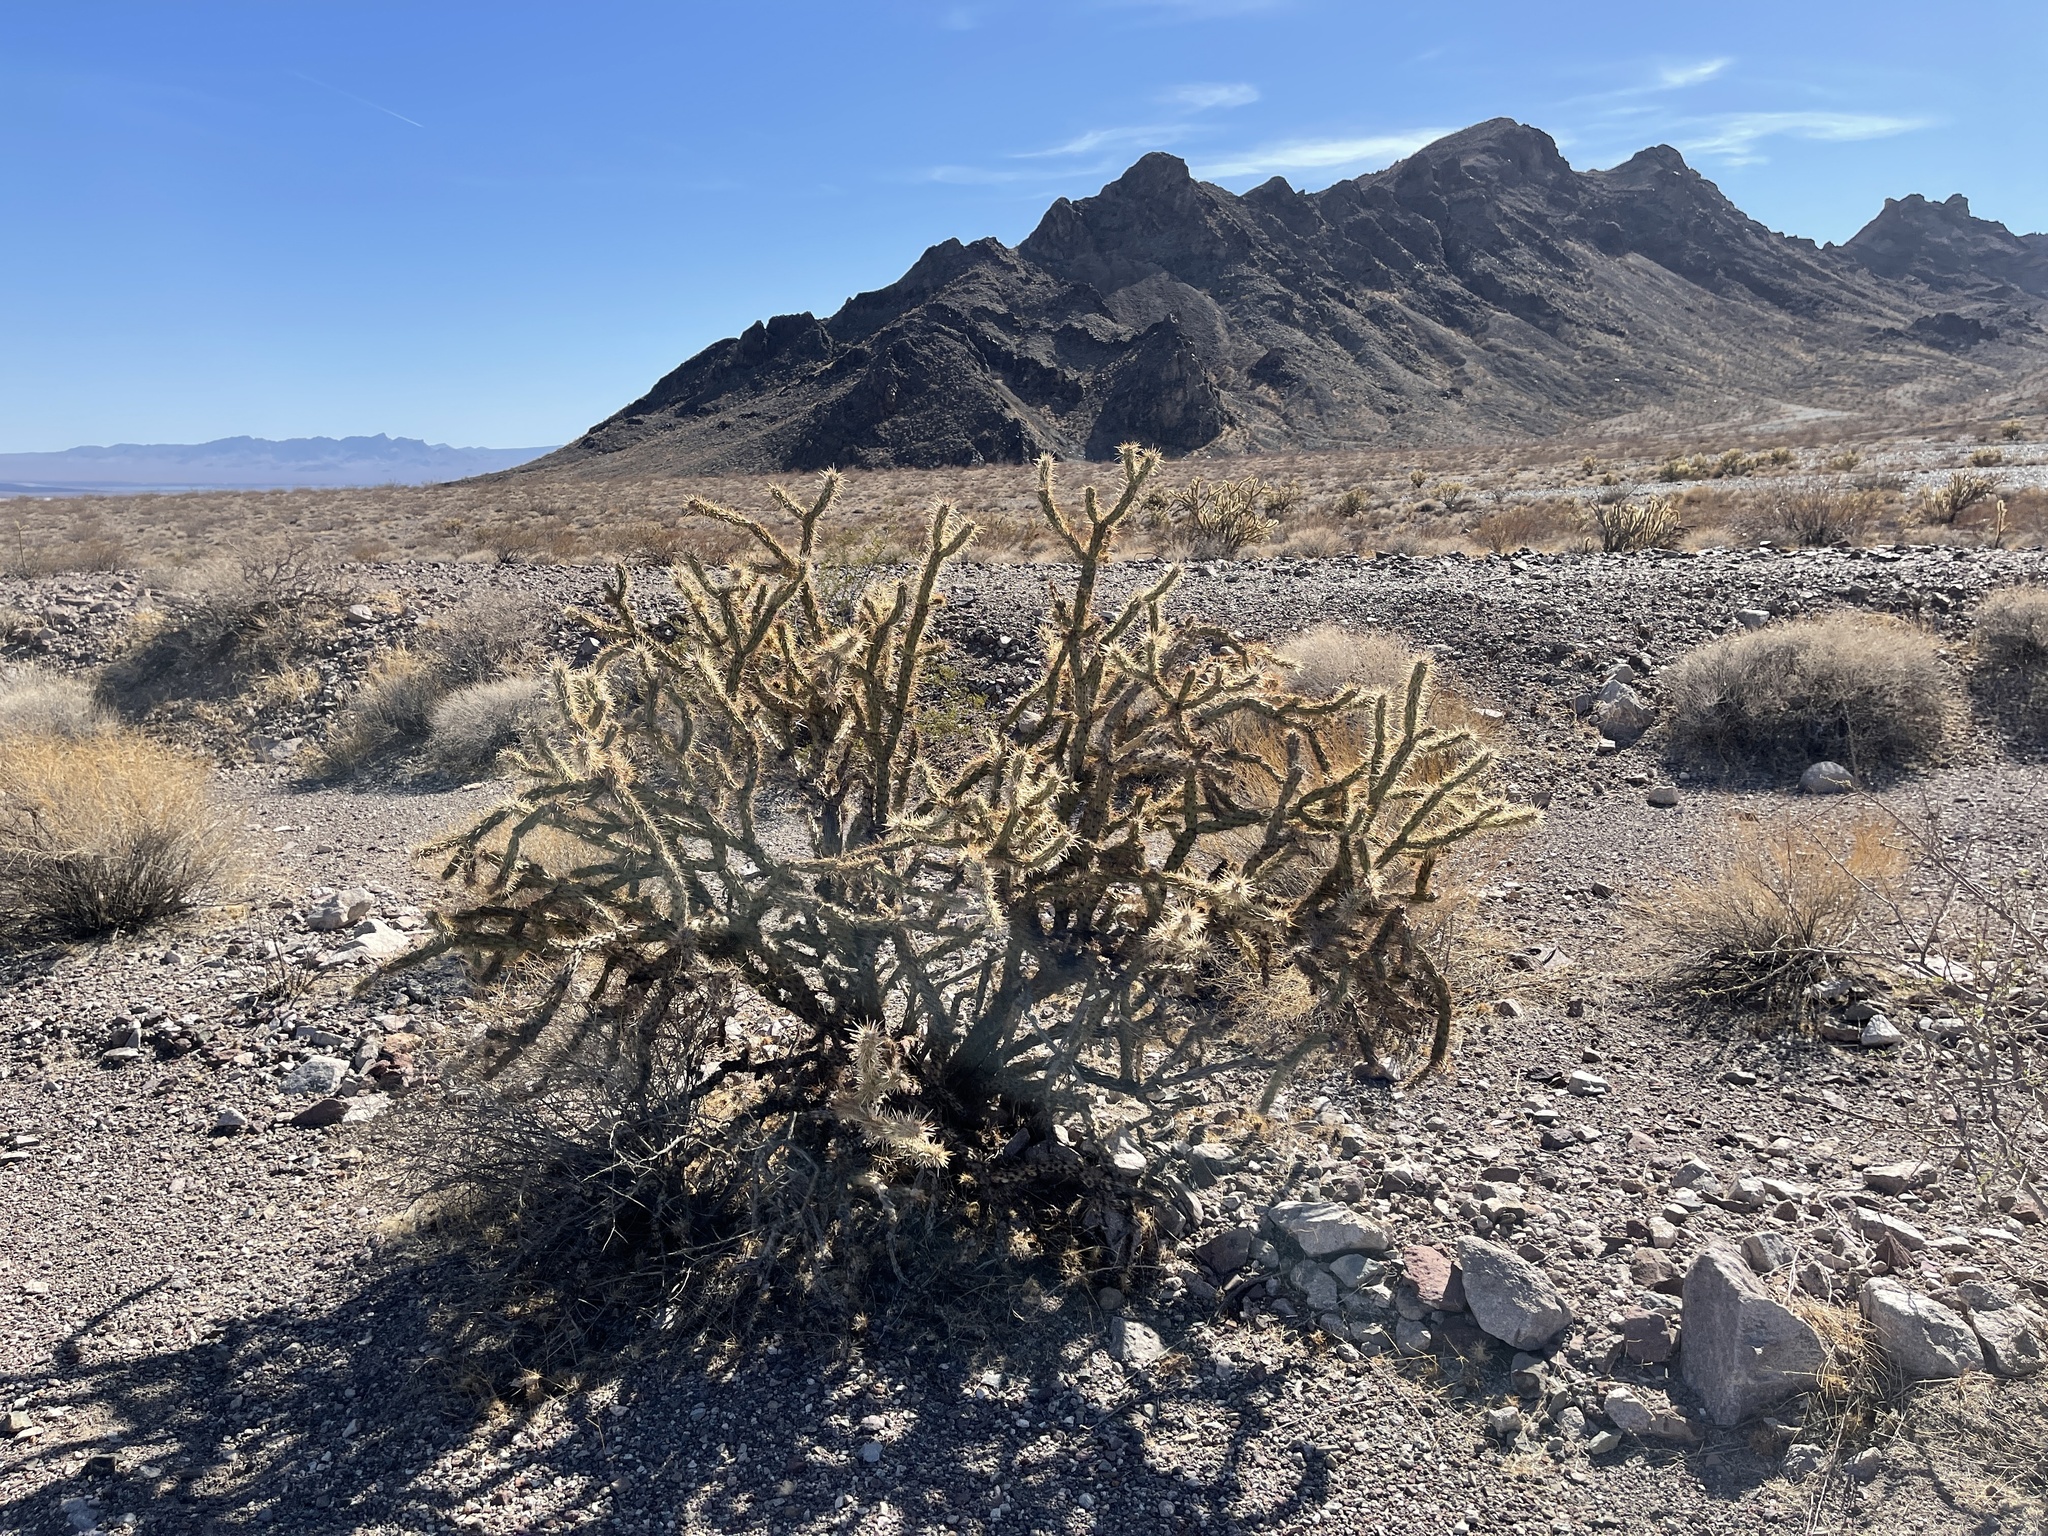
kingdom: Plantae
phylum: Tracheophyta
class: Magnoliopsida
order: Caryophyllales
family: Cactaceae
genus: Cylindropuntia
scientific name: Cylindropuntia acanthocarpa
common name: Buckhorn cholla
